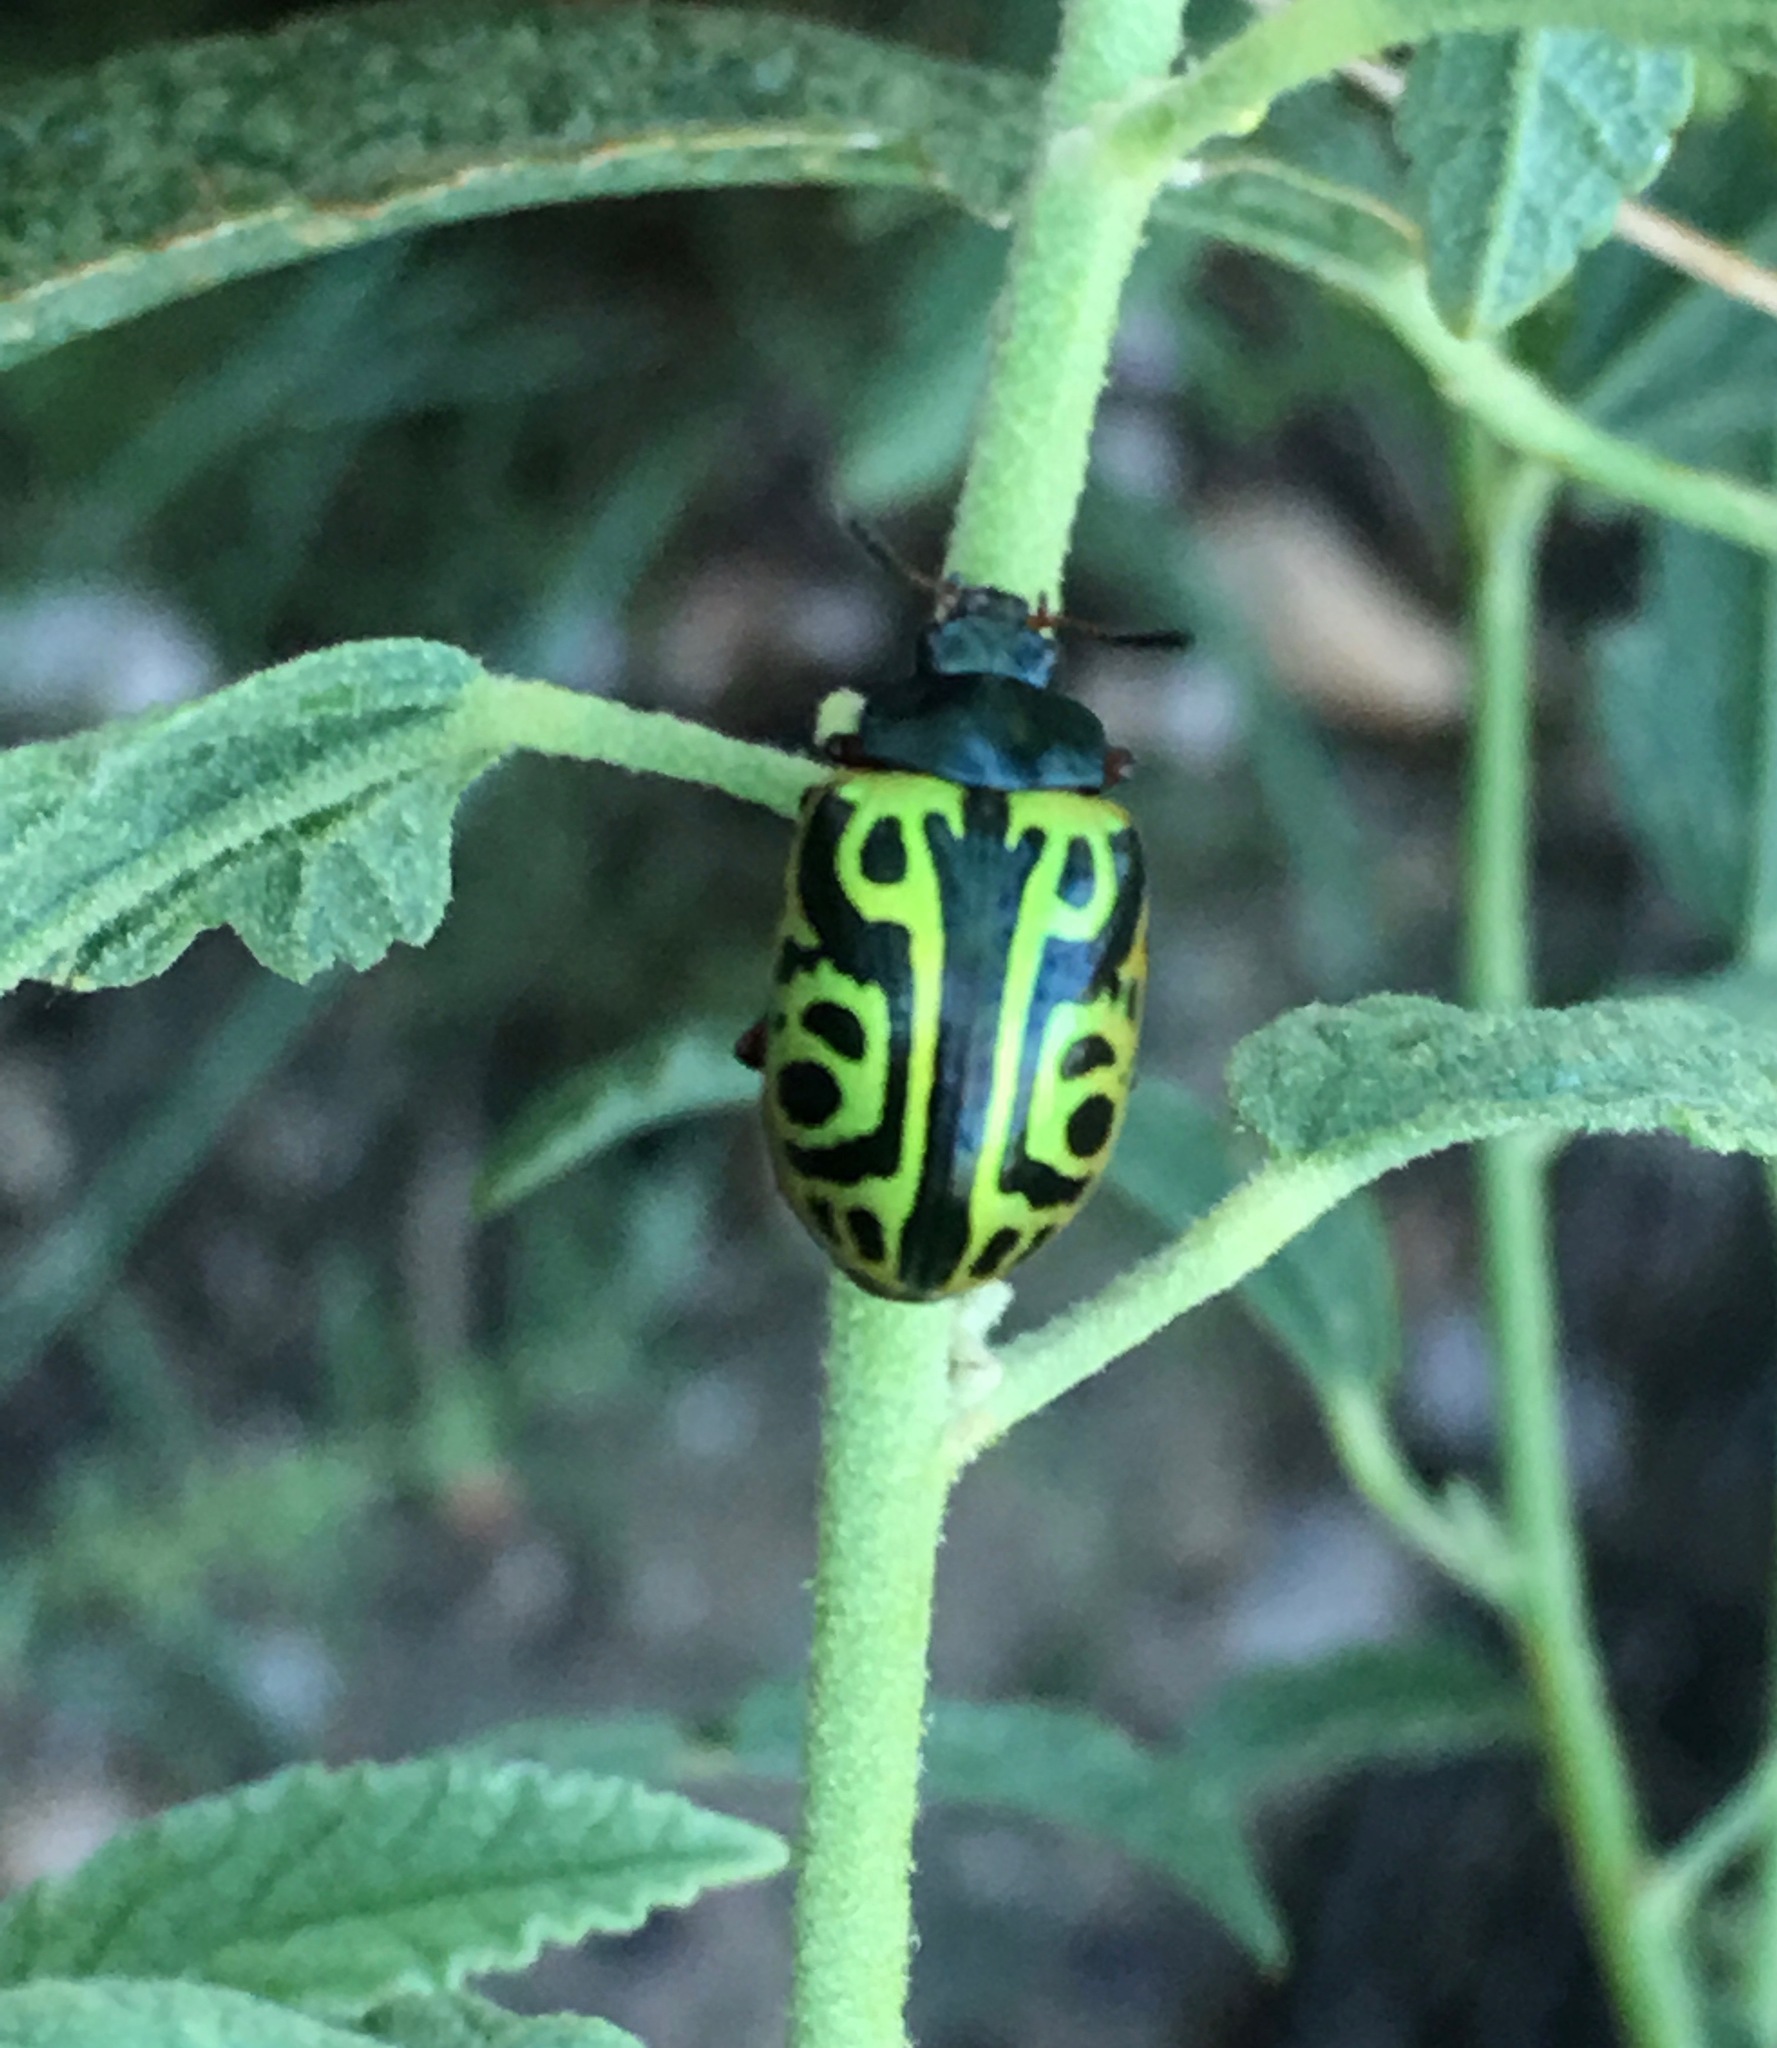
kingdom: Animalia
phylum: Arthropoda
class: Insecta
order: Coleoptera
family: Chrysomelidae
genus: Calligrapha
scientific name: Calligrapha serpentina
